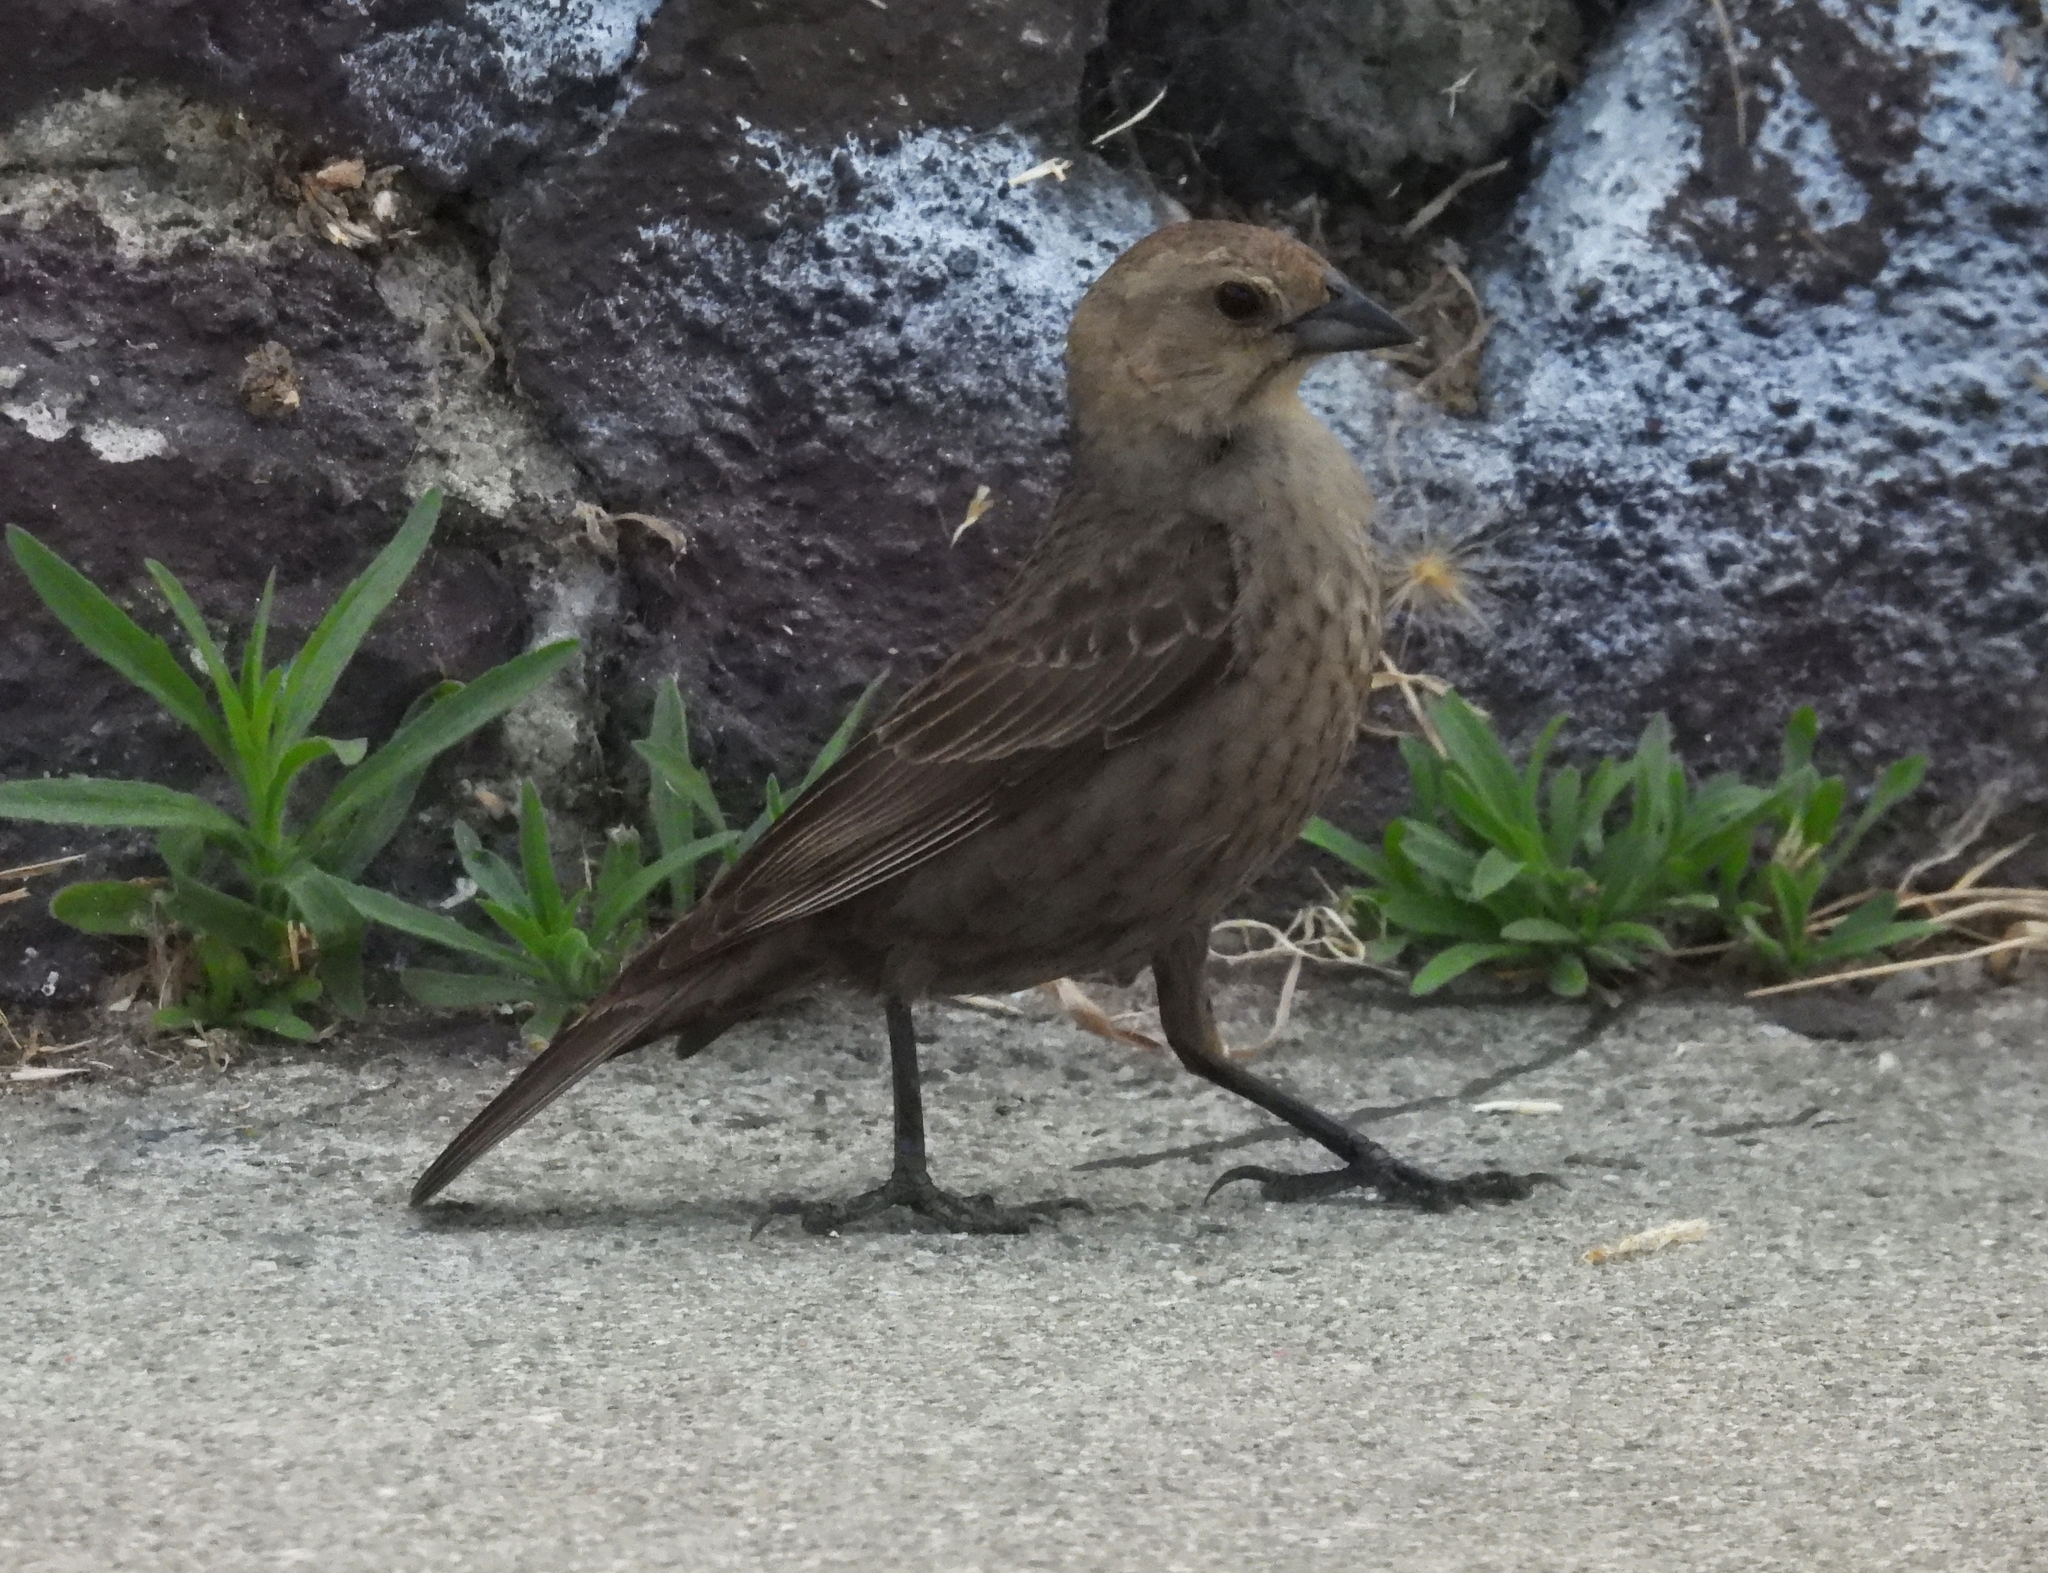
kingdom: Animalia
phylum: Chordata
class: Aves
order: Passeriformes
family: Icteridae
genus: Molothrus
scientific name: Molothrus ater
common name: Brown-headed cowbird
